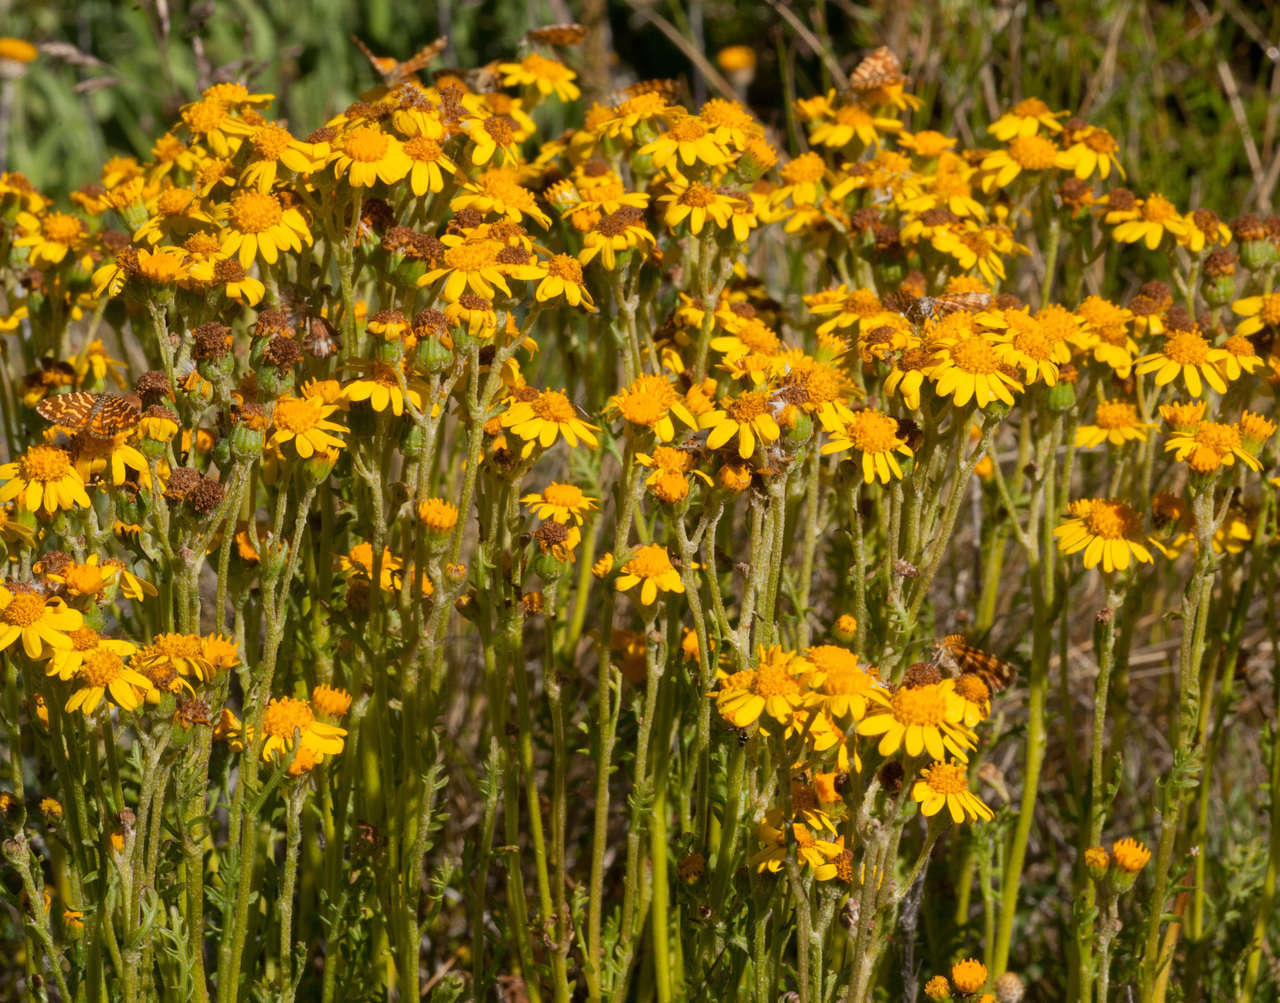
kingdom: Plantae
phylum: Tracheophyta
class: Magnoliopsida
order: Asterales
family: Asteraceae
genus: Senecio
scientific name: Senecio pinnatifolius
